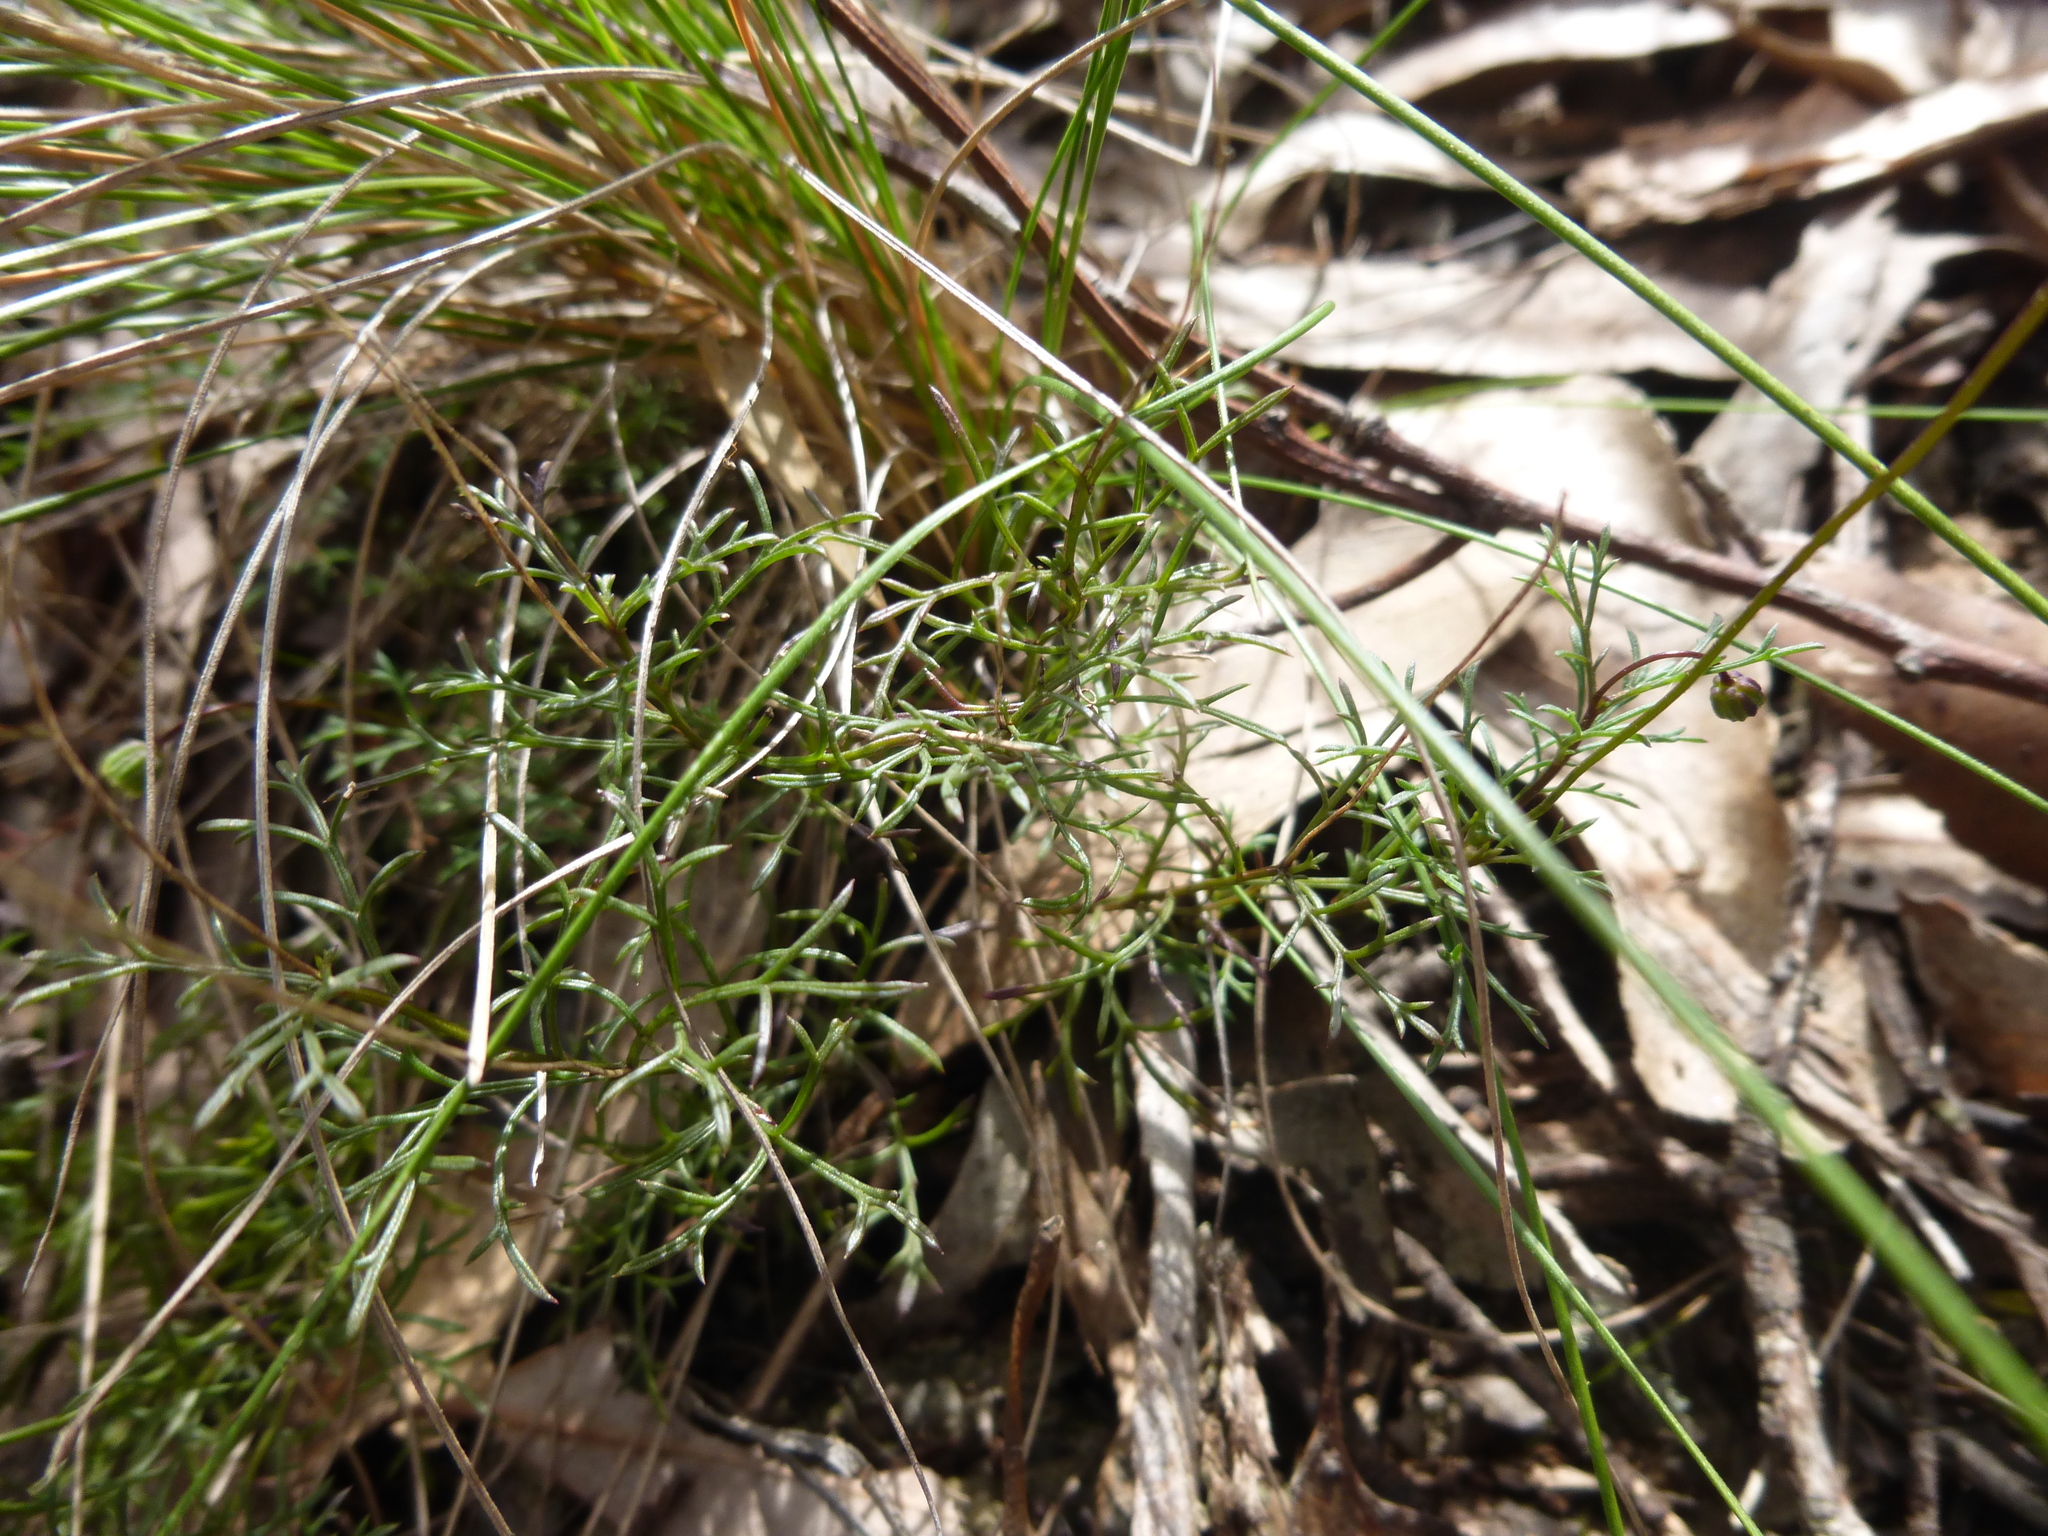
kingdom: Plantae
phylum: Tracheophyta
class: Magnoliopsida
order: Asterales
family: Asteraceae
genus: Brachyscome
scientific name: Brachyscome multifida
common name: Cut-leaf daisy
